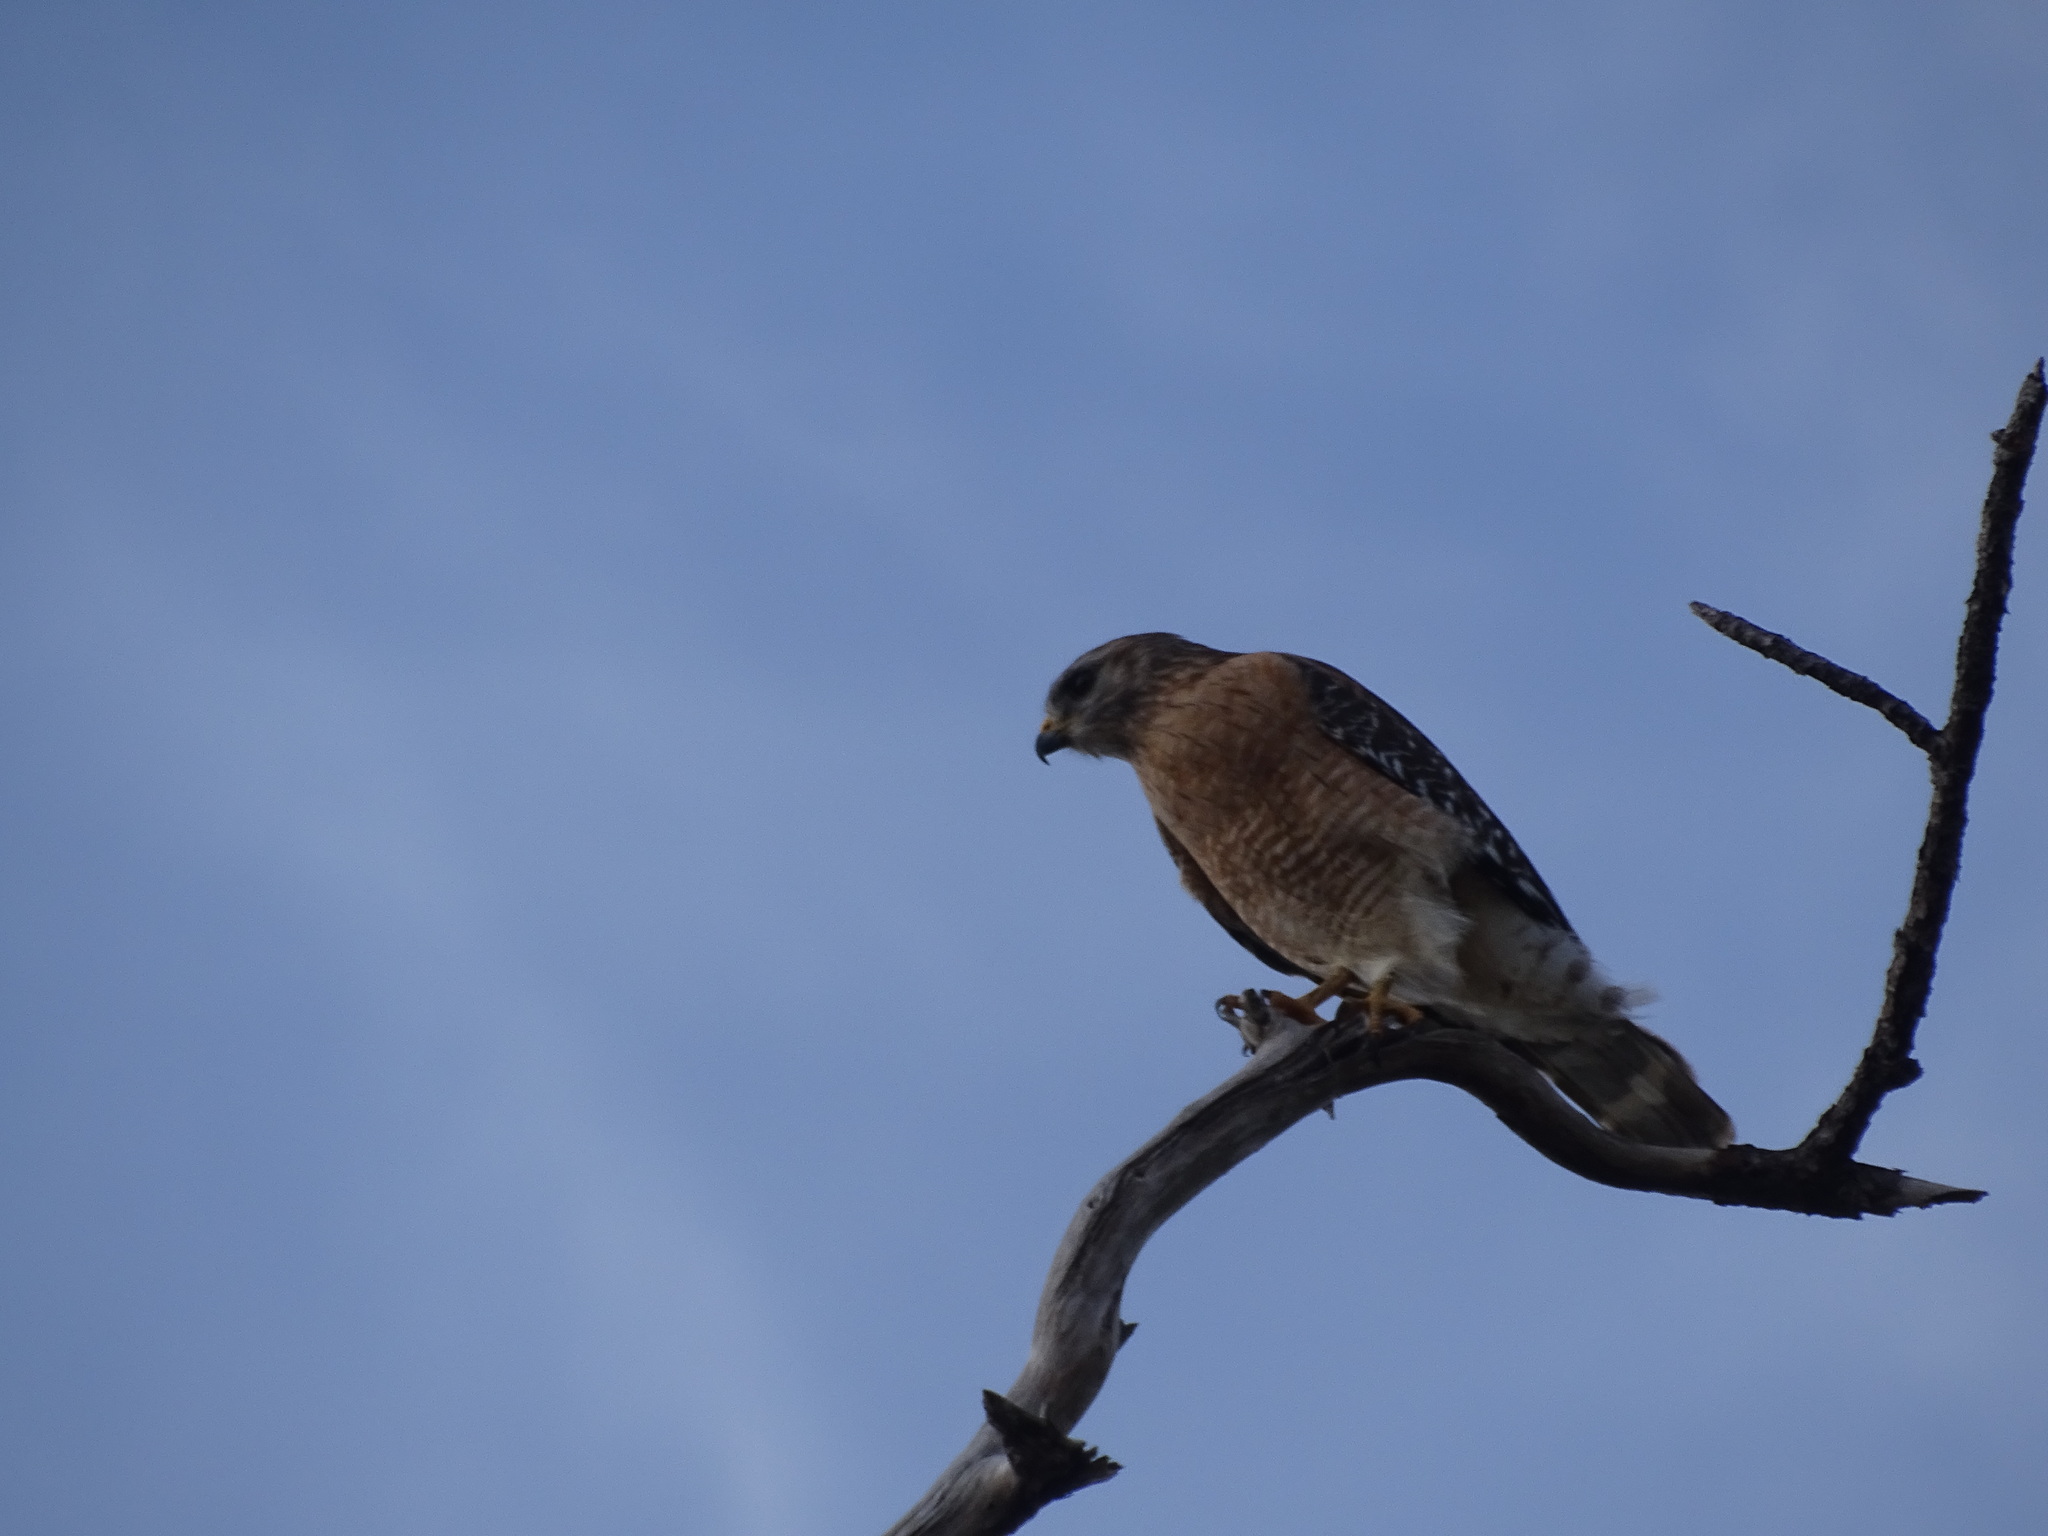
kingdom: Animalia
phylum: Chordata
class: Aves
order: Accipitriformes
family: Accipitridae
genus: Buteo
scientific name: Buteo lineatus
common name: Red-shouldered hawk
